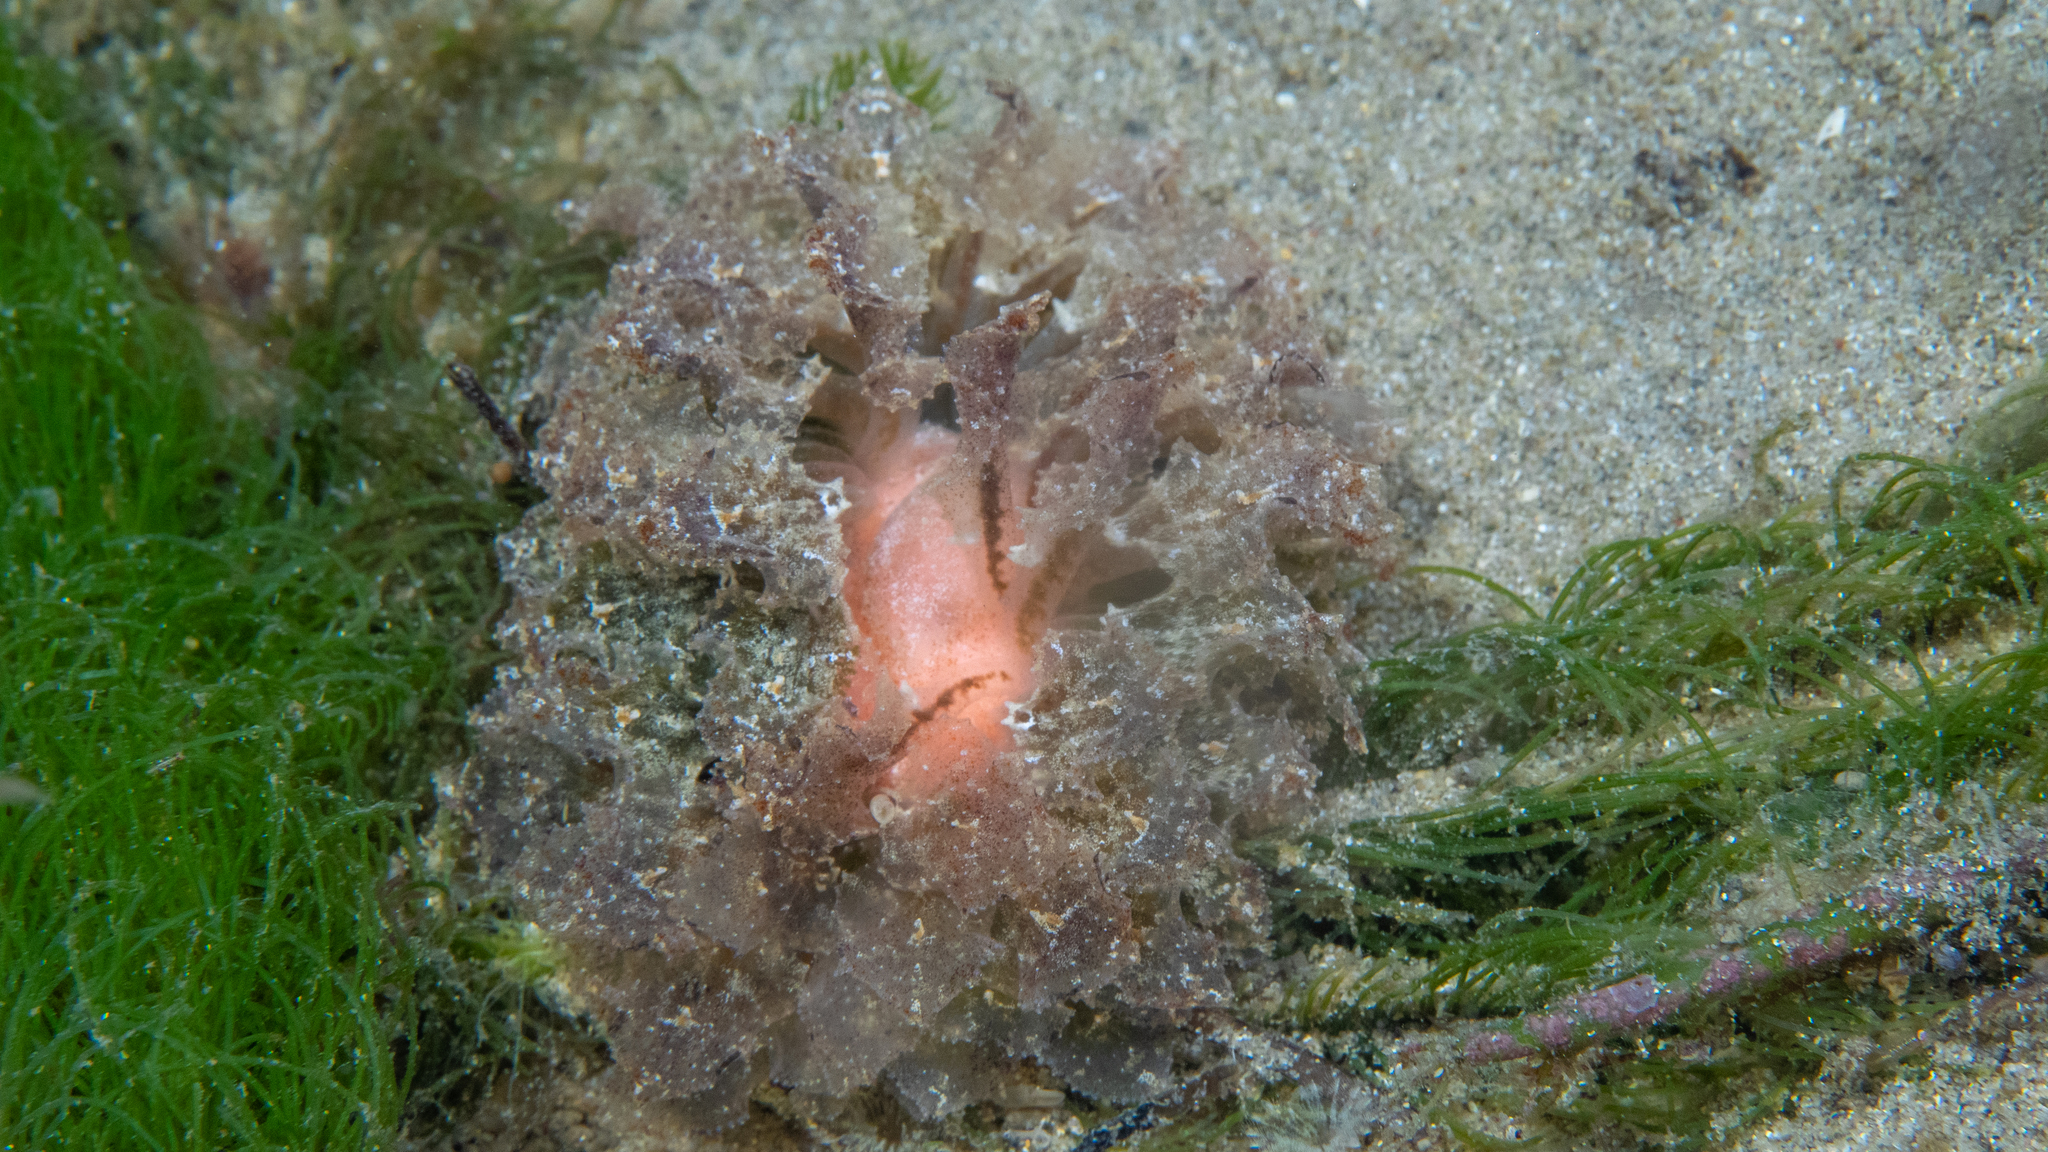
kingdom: Animalia
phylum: Mollusca
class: Gastropoda
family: Hermaeidae
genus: Polybranchia
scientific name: Polybranchia pallens
